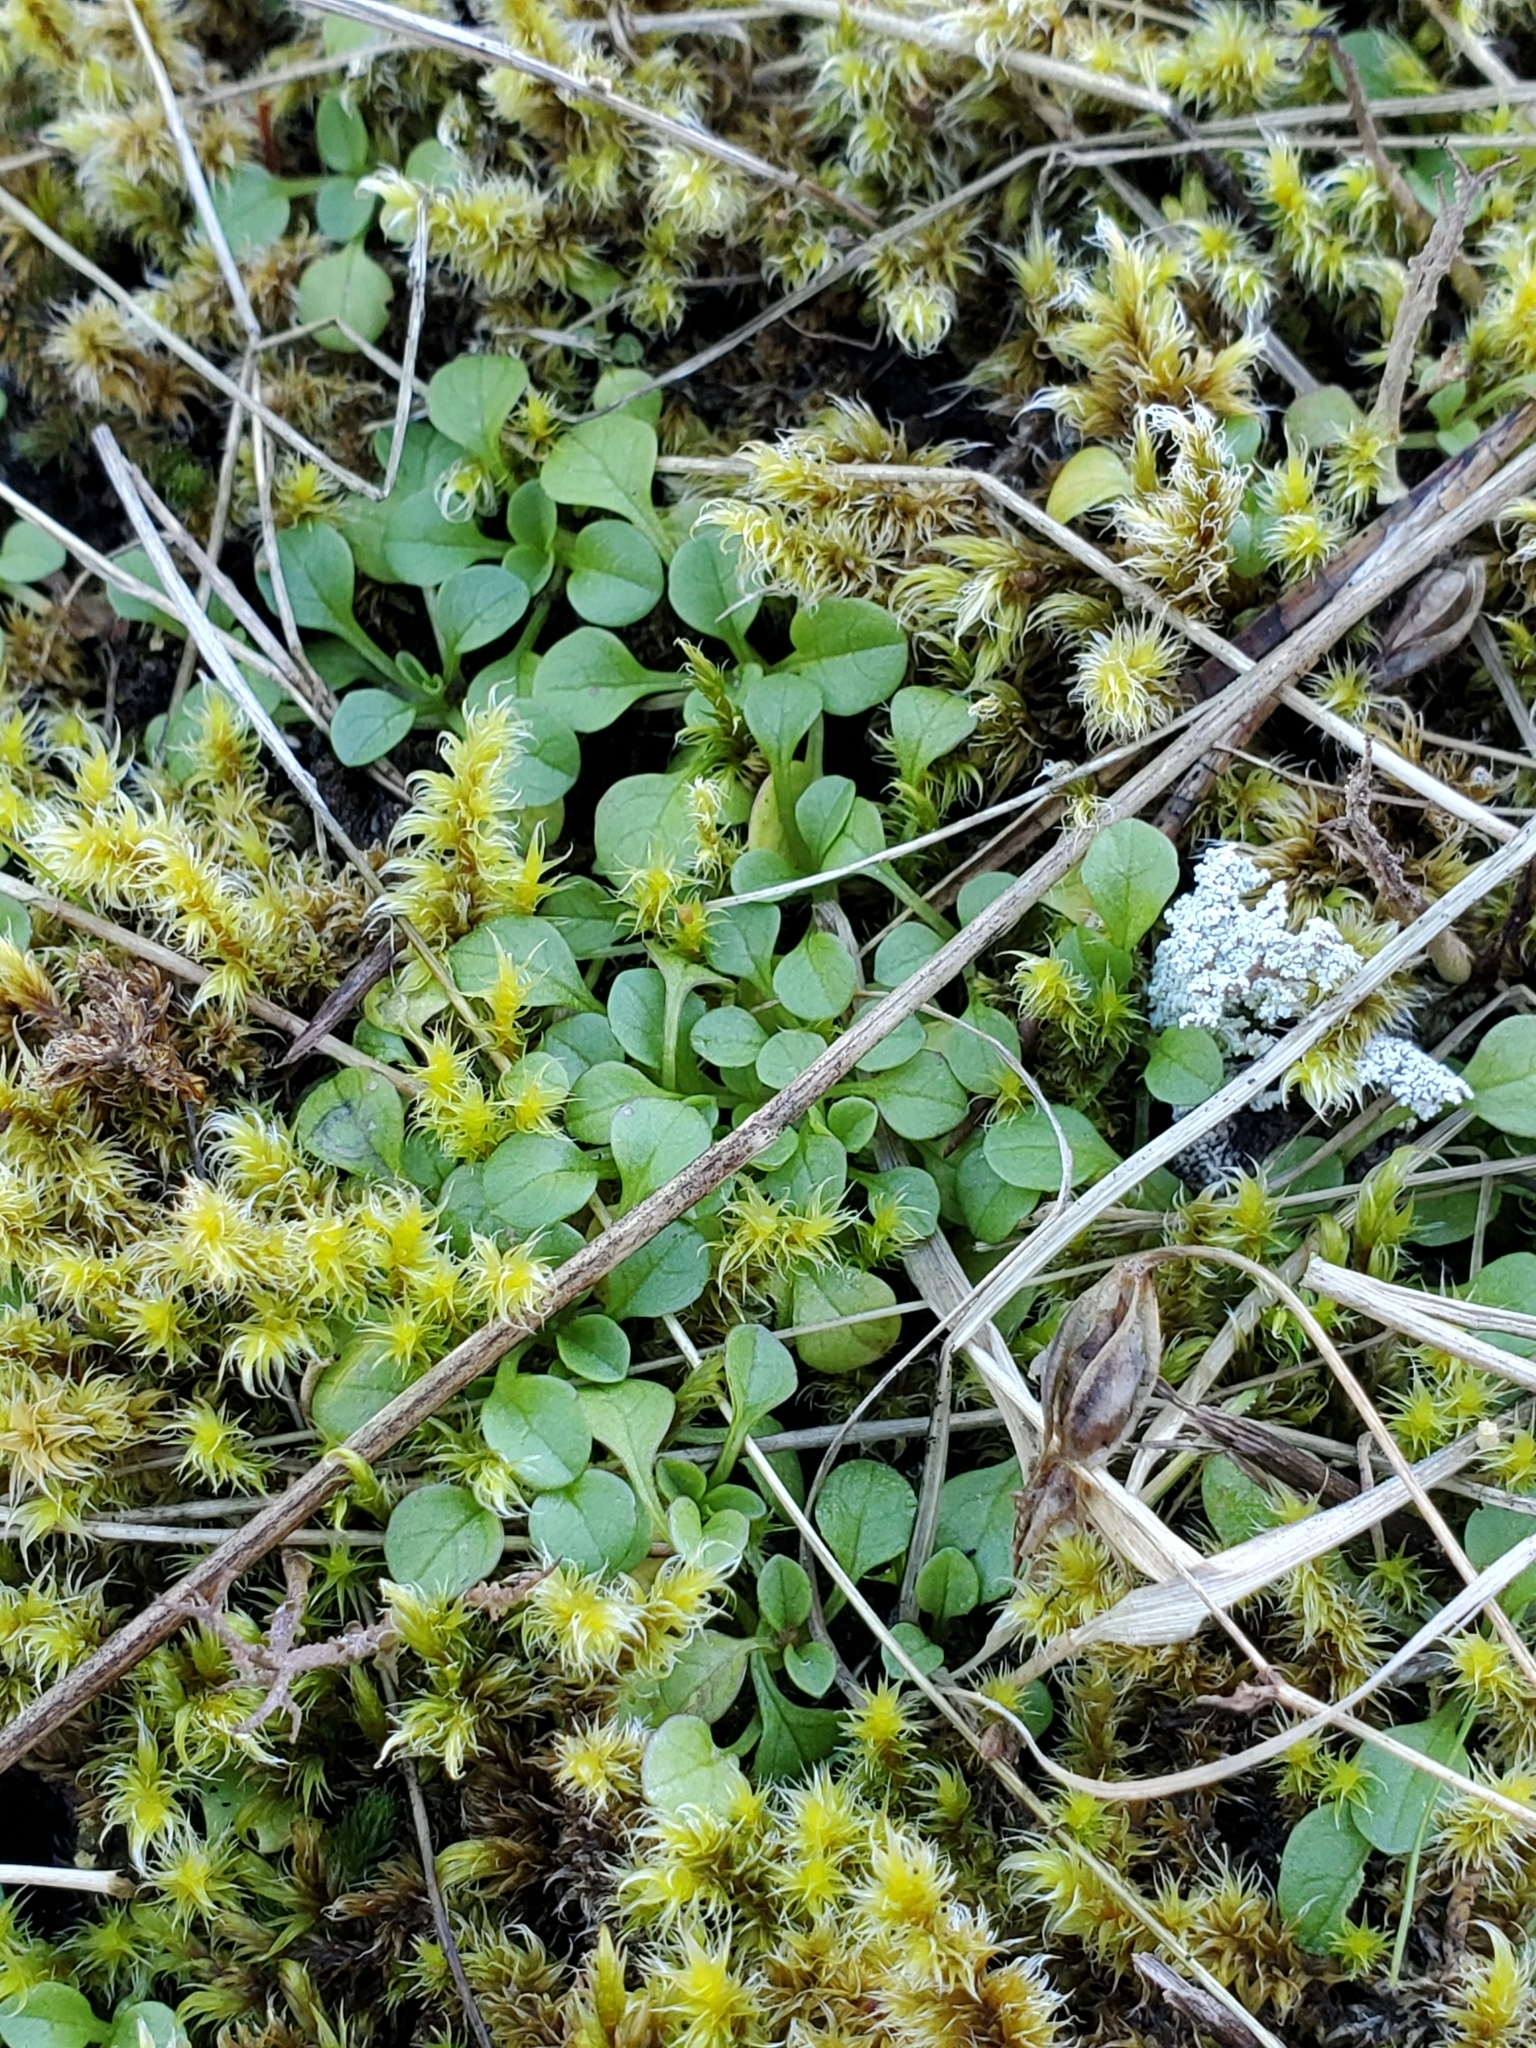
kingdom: Plantae
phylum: Tracheophyta
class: Magnoliopsida
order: Dipsacales
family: Caprifoliaceae
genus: Plectritis
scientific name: Plectritis congesta
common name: Pink plectritis
